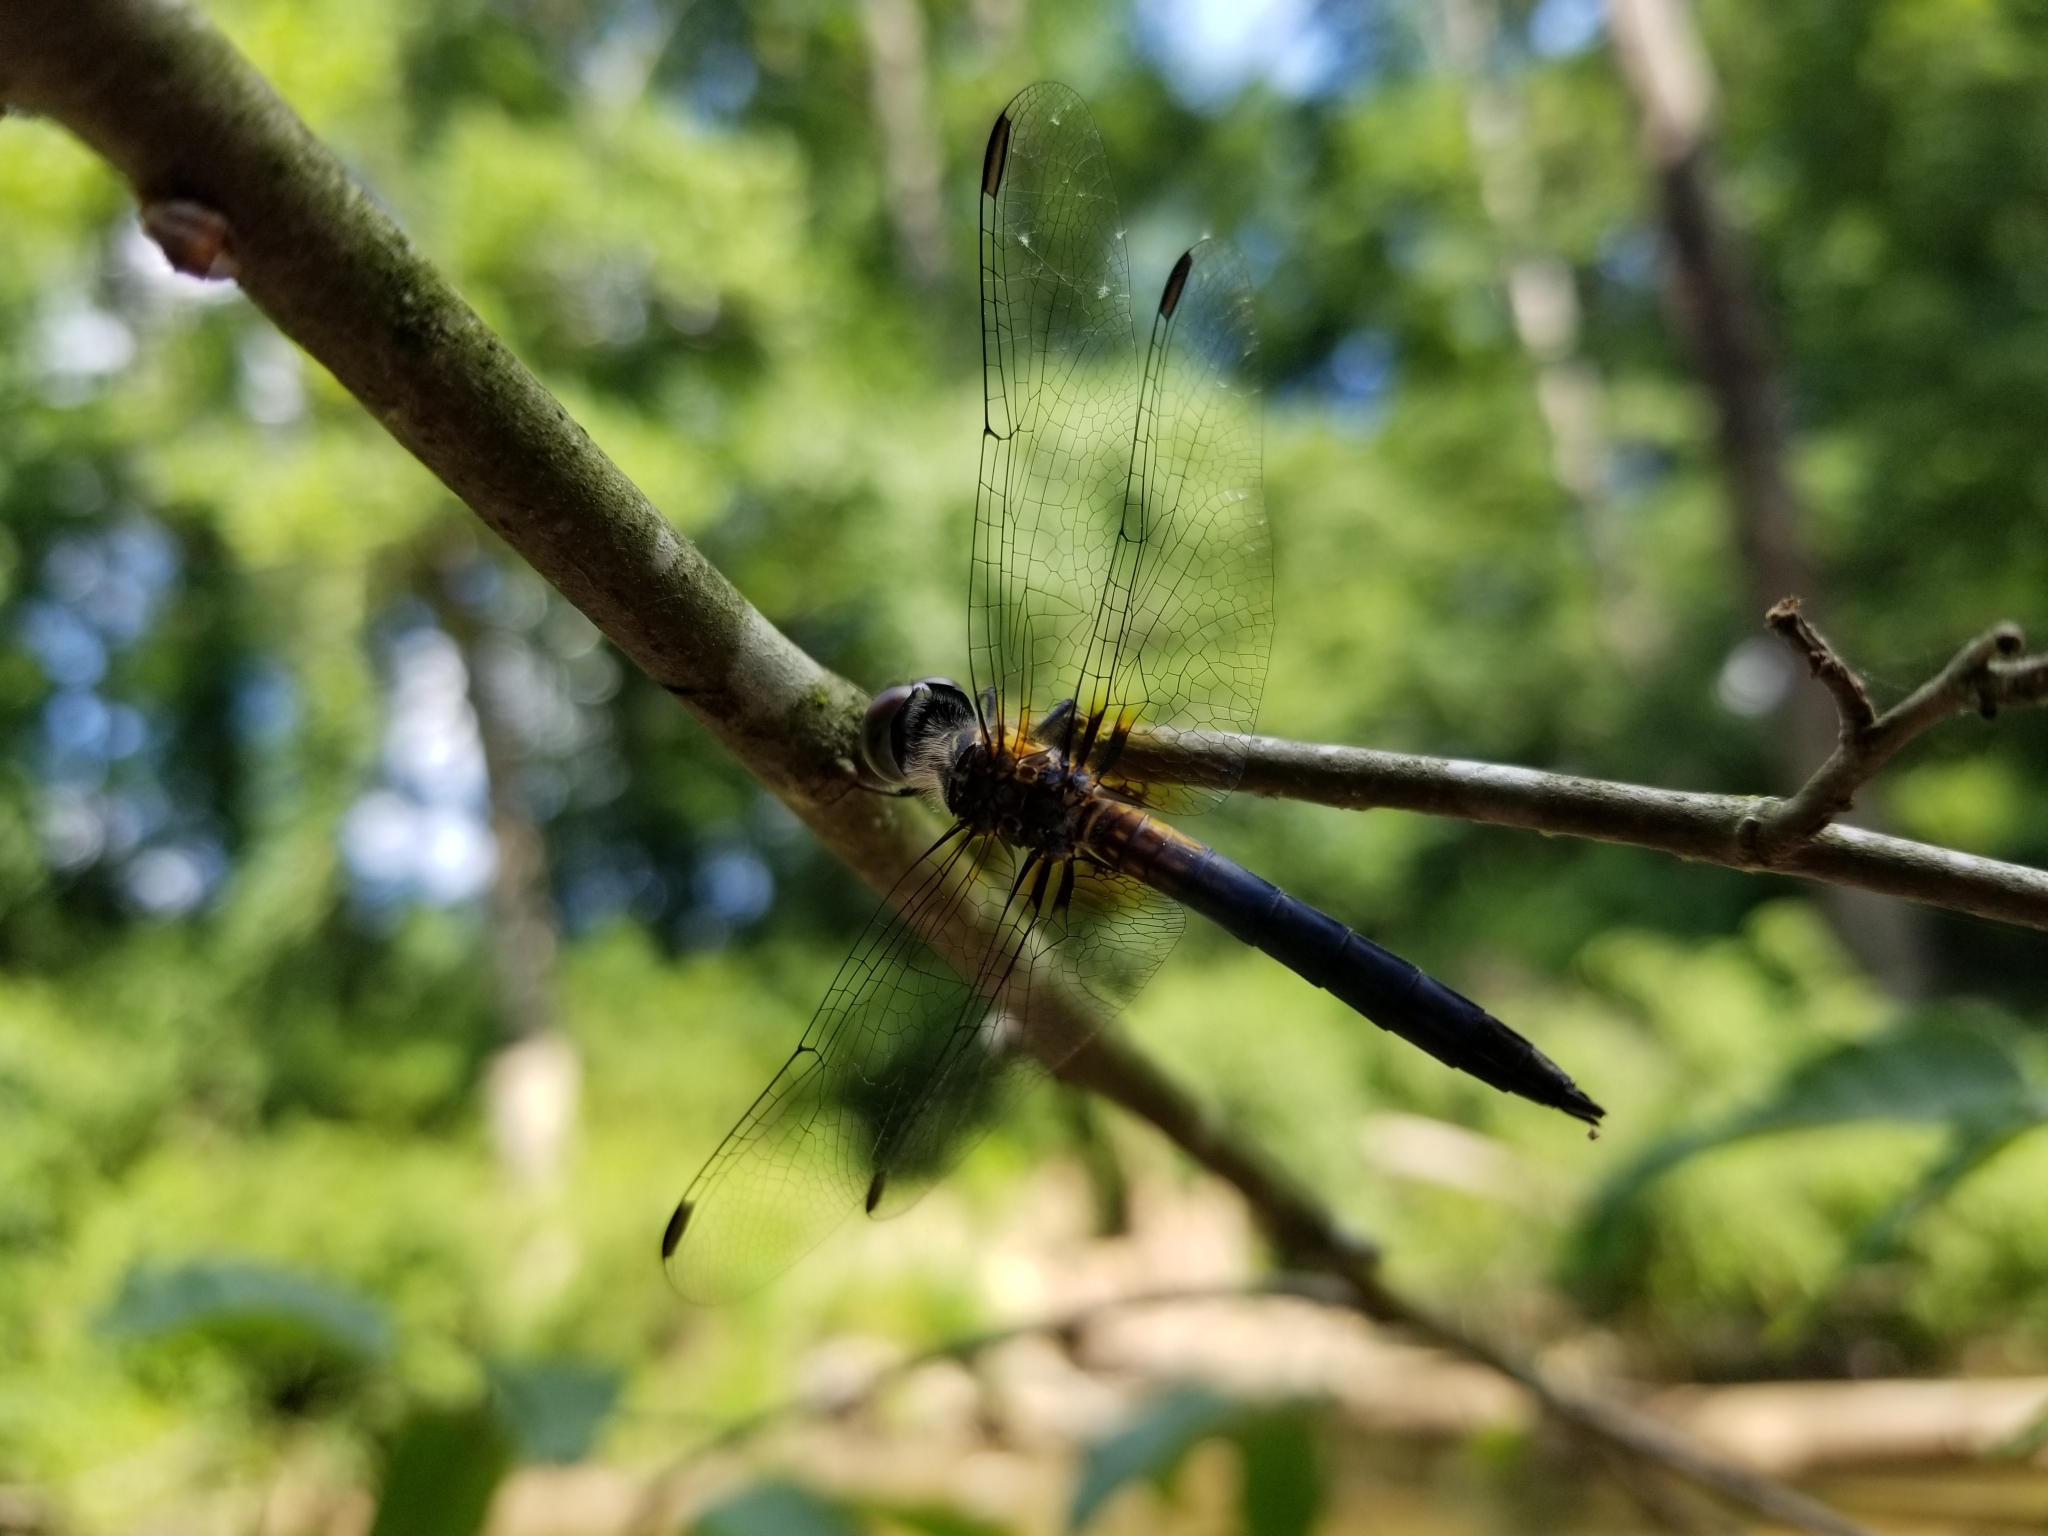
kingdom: Animalia
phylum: Arthropoda
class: Insecta
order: Odonata
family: Libellulidae
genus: Pachydiplax
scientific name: Pachydiplax longipennis
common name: Blue dasher
